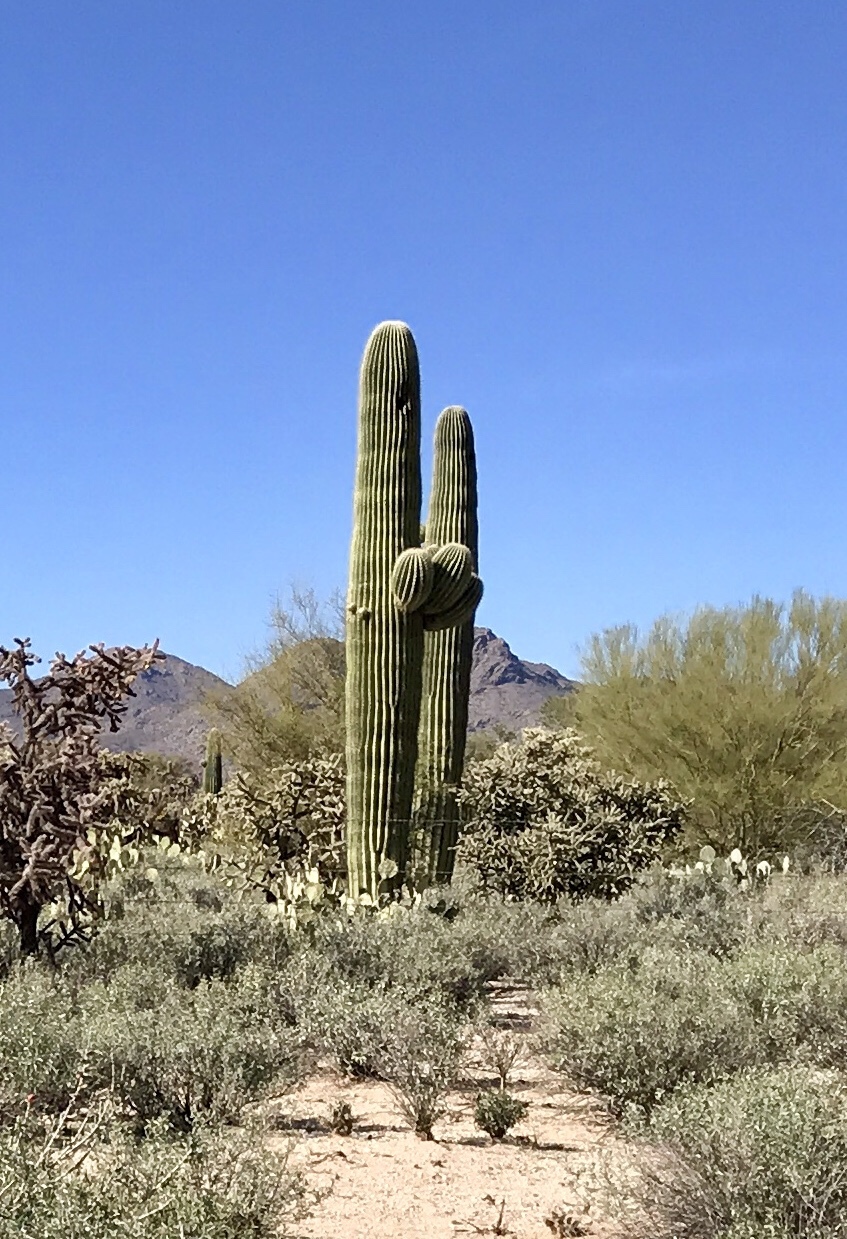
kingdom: Plantae
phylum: Tracheophyta
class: Magnoliopsida
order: Caryophyllales
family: Cactaceae
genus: Carnegiea
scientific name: Carnegiea gigantea
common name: Saguaro
